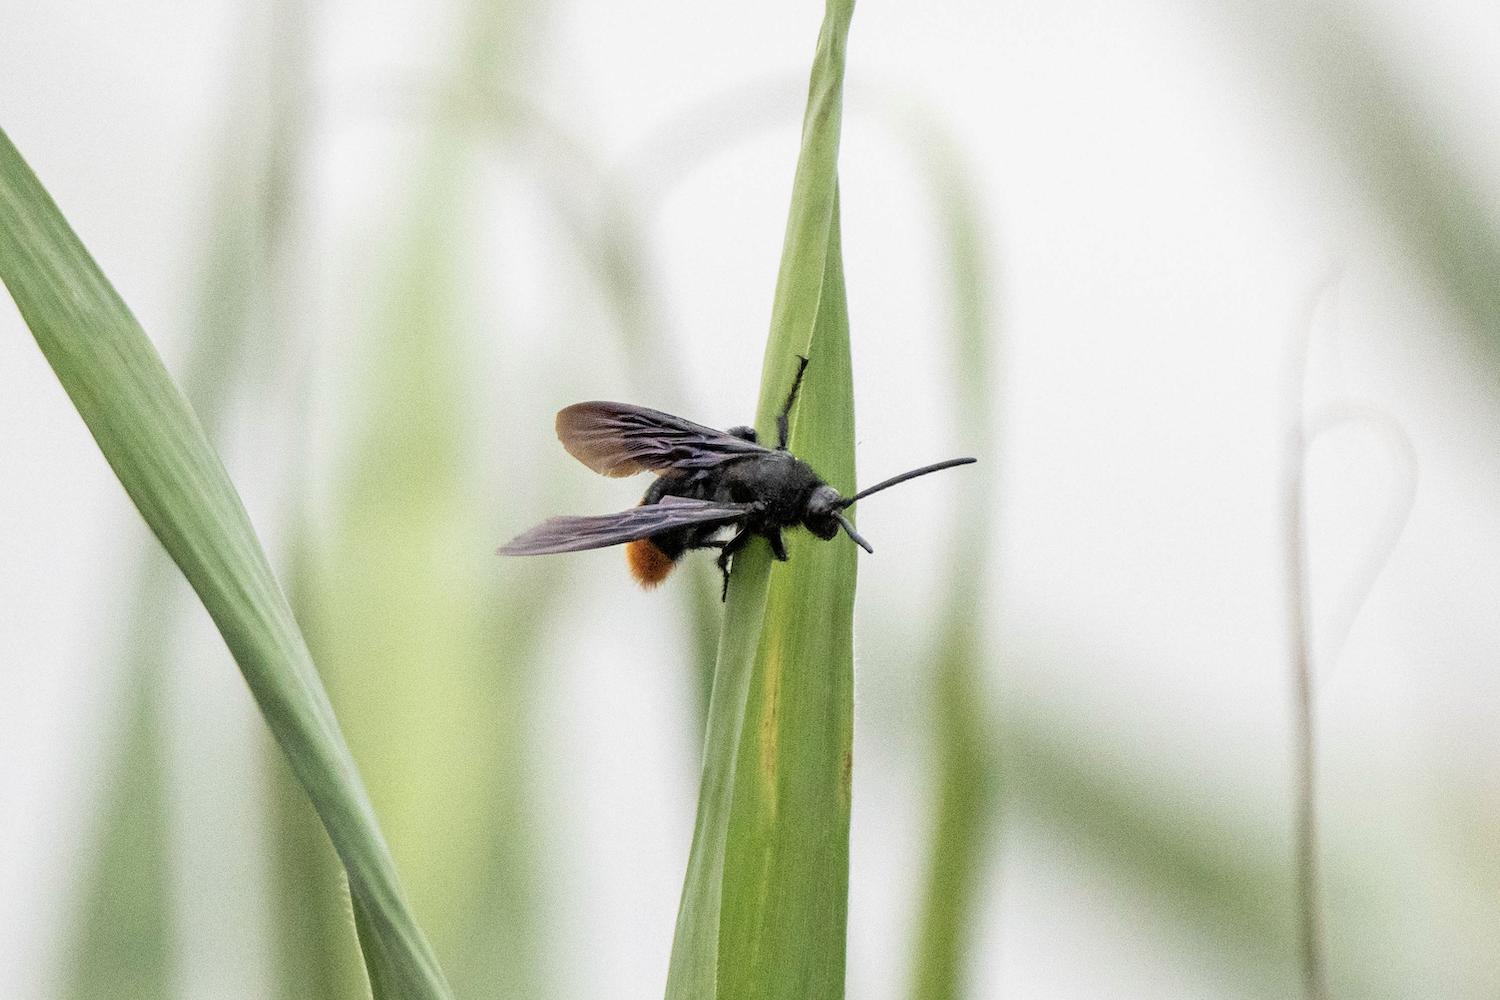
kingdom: Animalia
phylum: Arthropoda
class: Insecta
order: Hymenoptera
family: Scoliidae
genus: Megascolia
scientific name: Megascolia azurea
